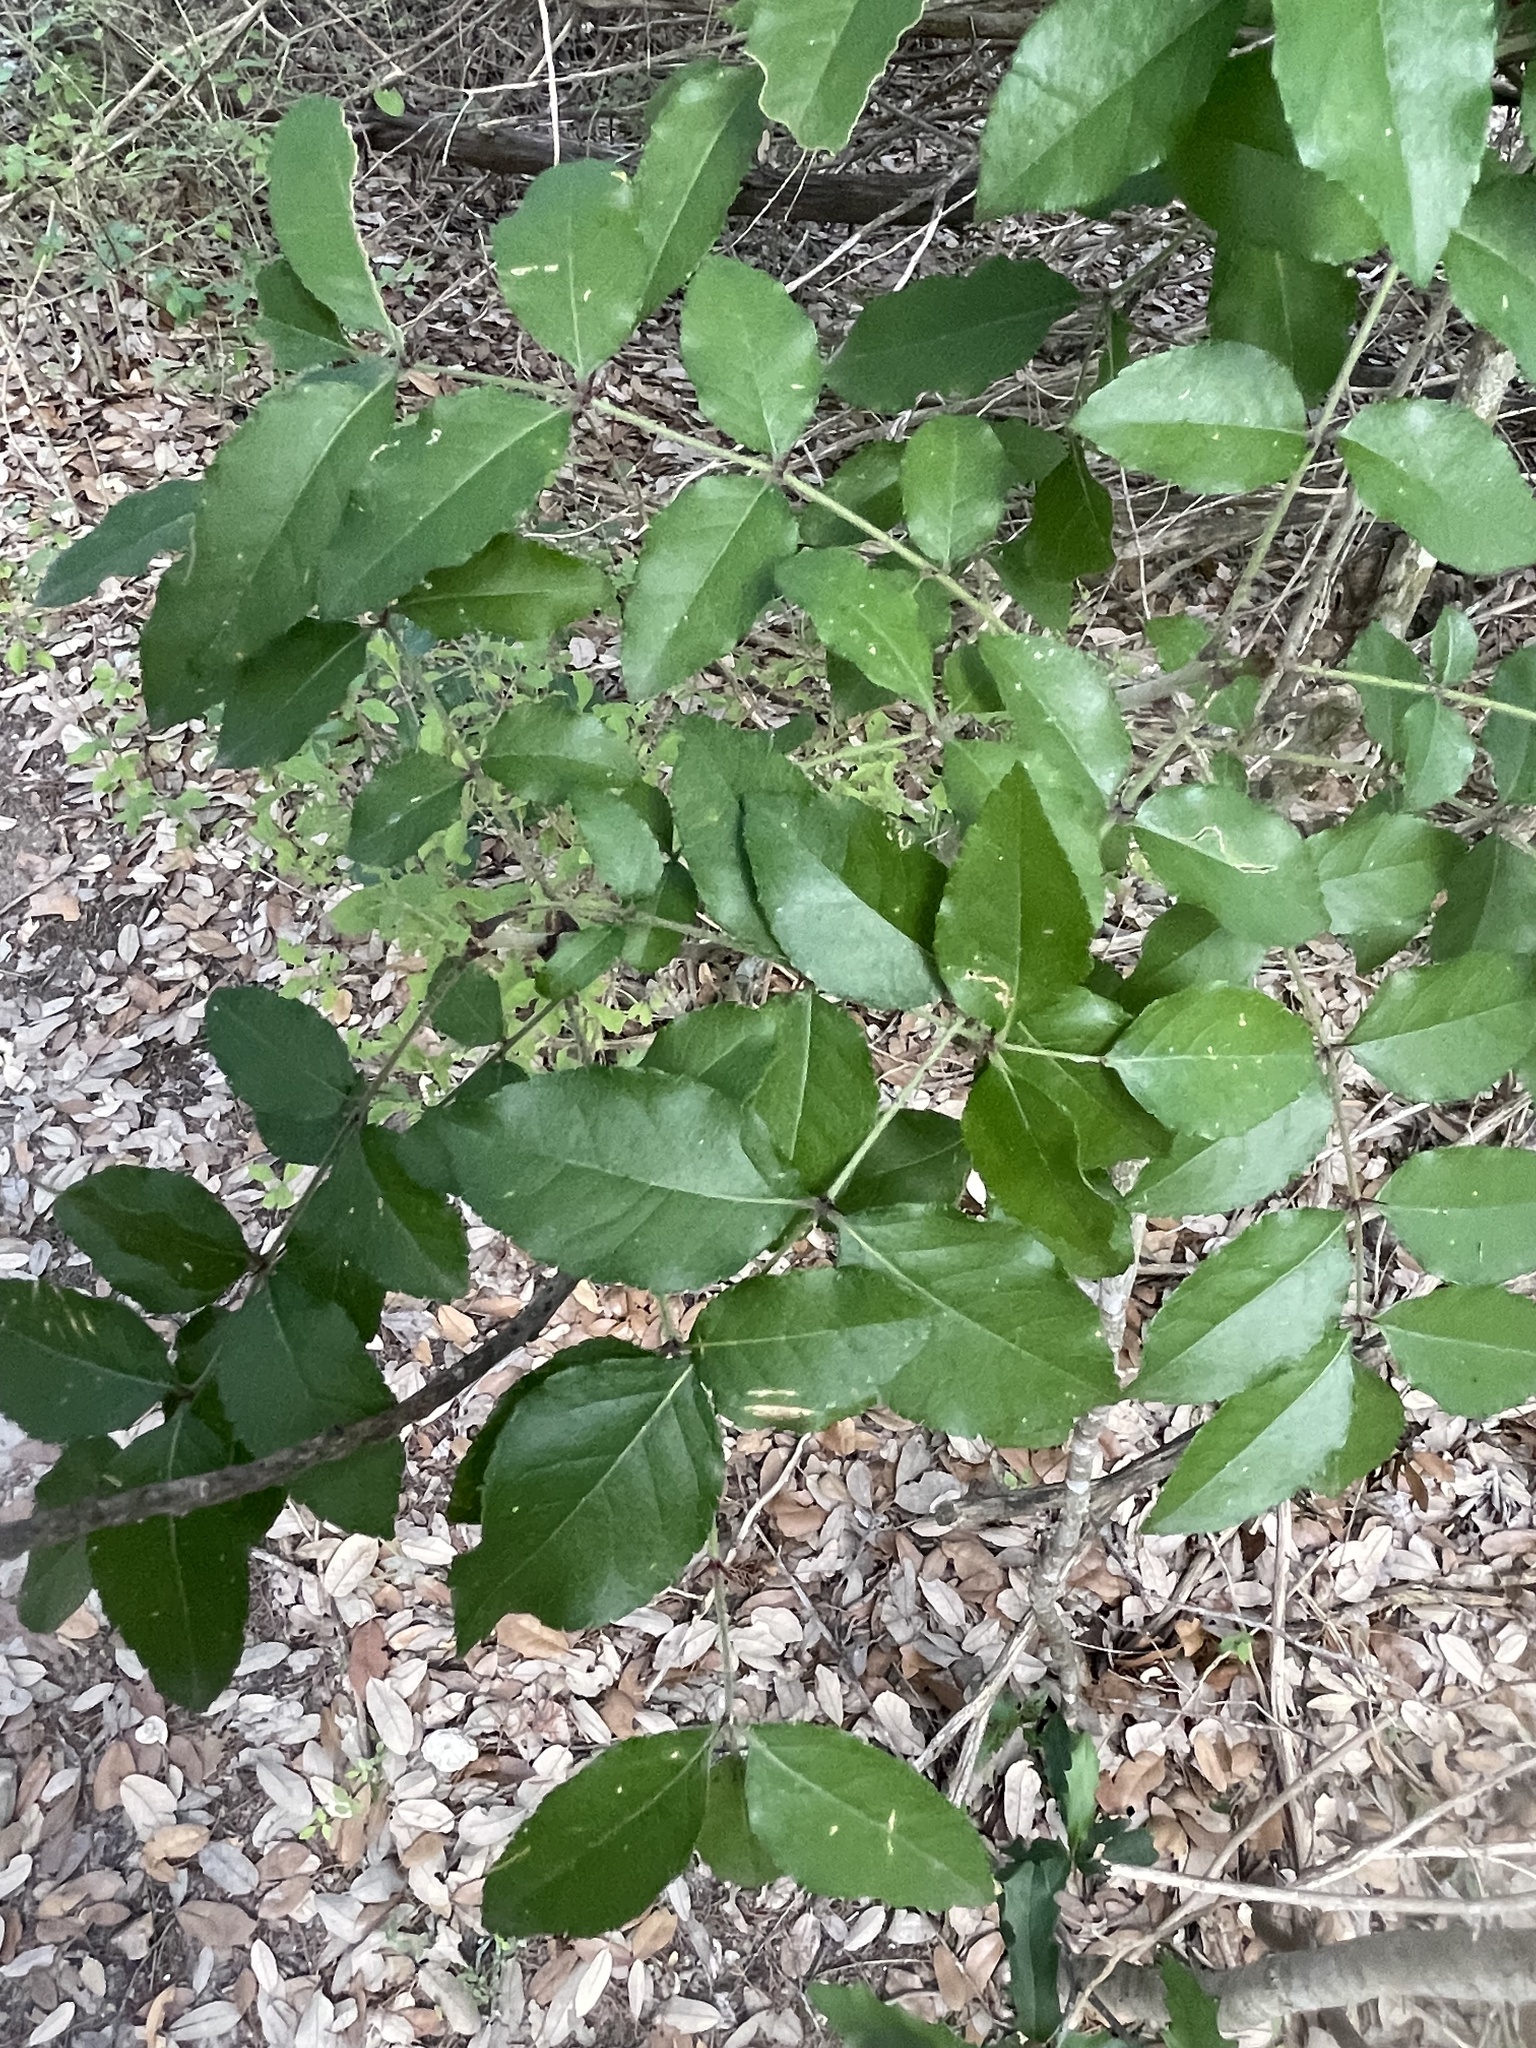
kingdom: Plantae
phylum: Tracheophyta
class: Magnoliopsida
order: Sapindales
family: Rutaceae
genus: Zanthoxylum
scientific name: Zanthoxylum clava-herculis
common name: Hercules'-club
